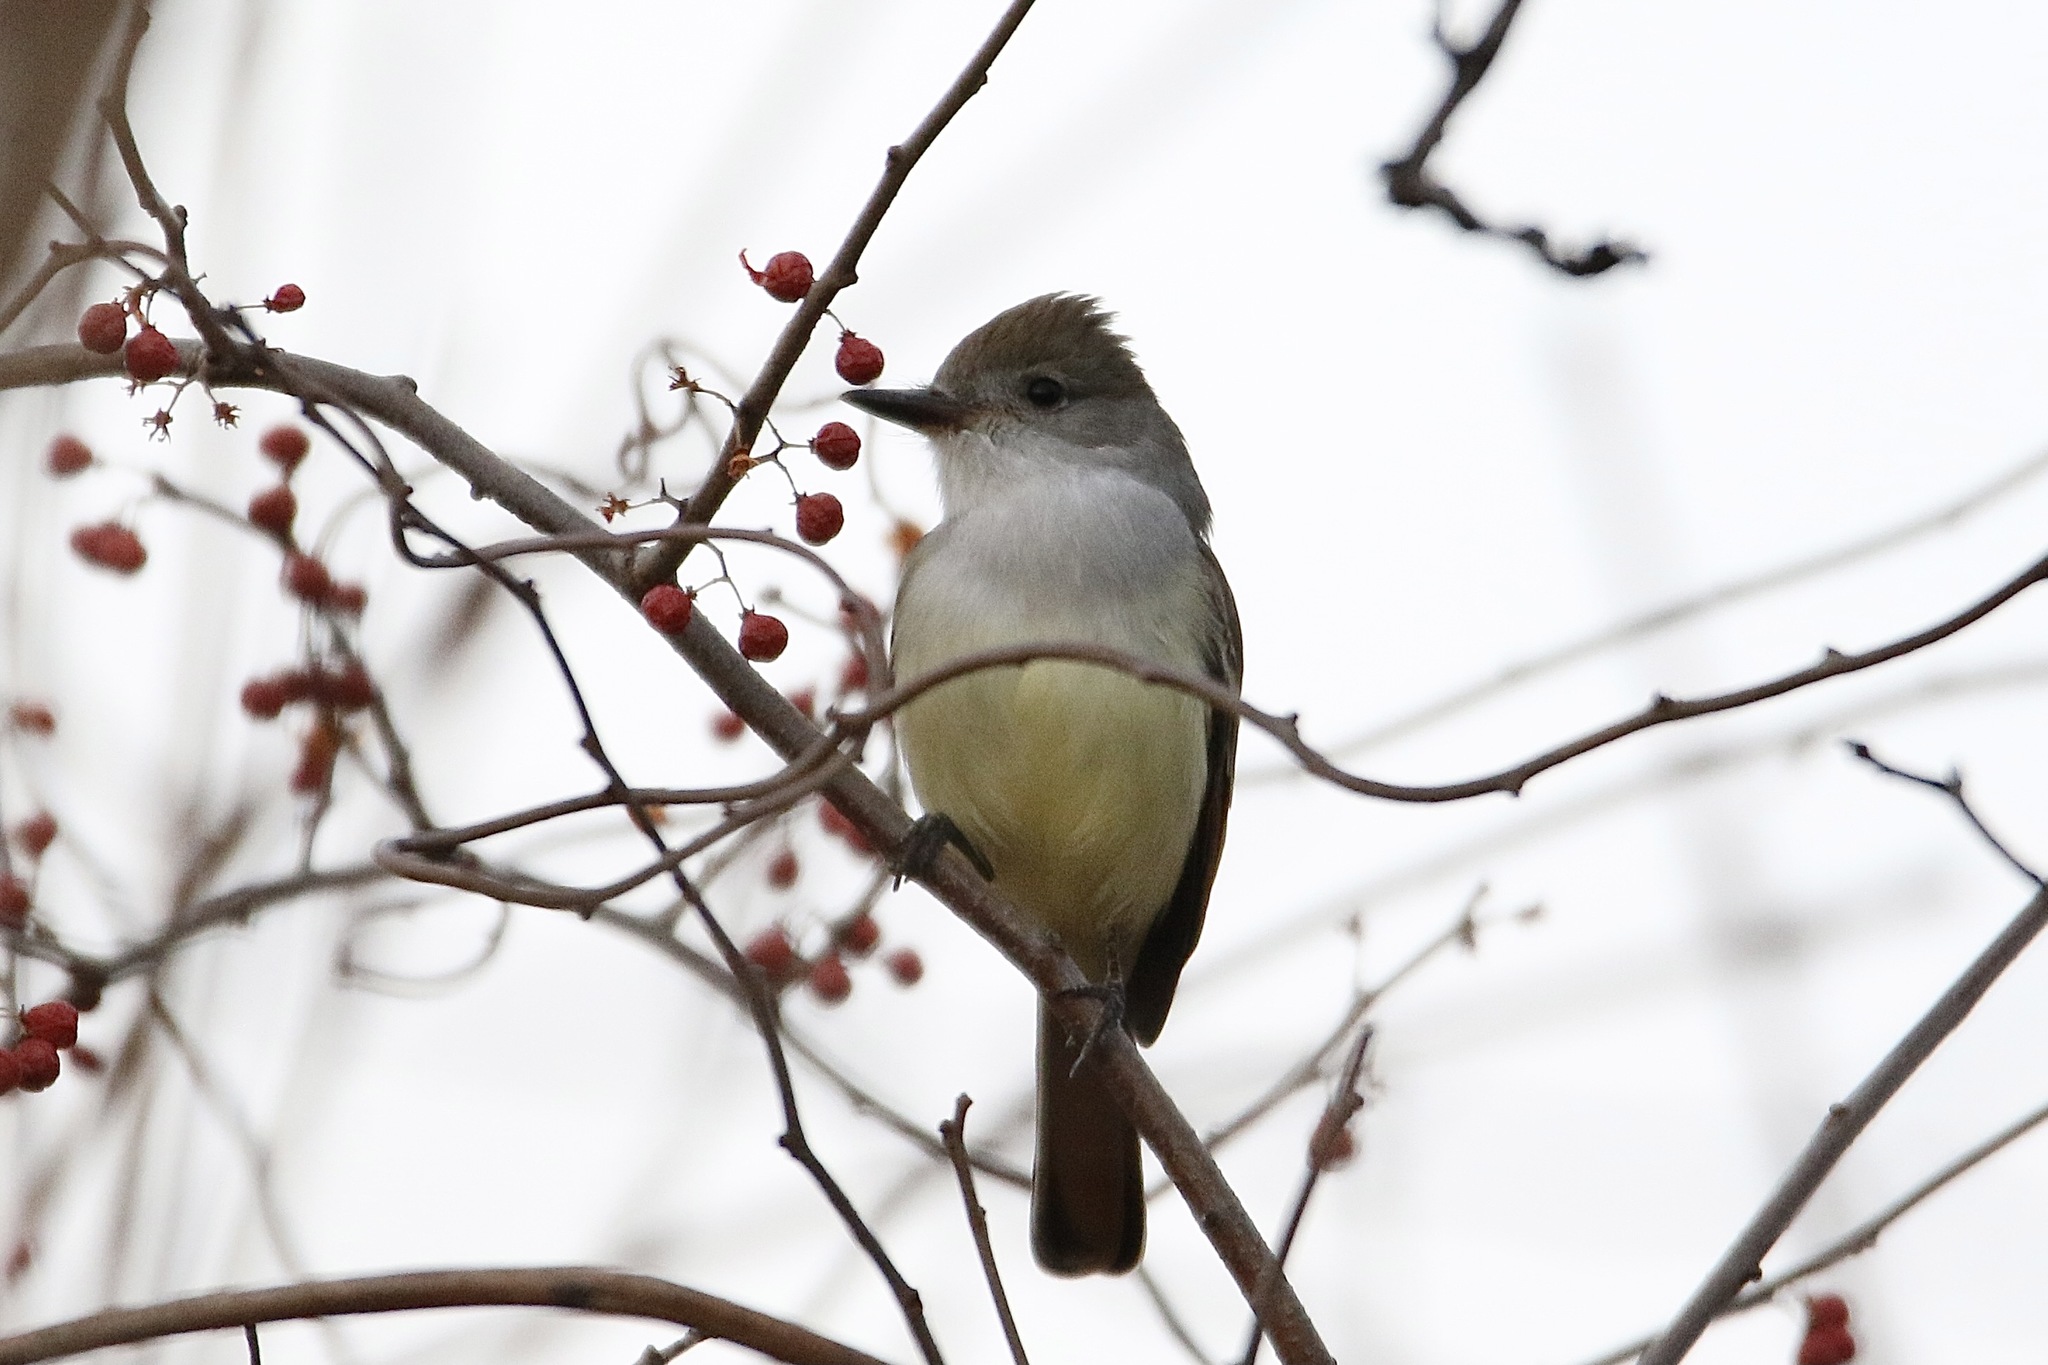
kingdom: Animalia
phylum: Chordata
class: Aves
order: Passeriformes
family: Tyrannidae
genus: Myiarchus
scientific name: Myiarchus cinerascens
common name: Ash-throated flycatcher
